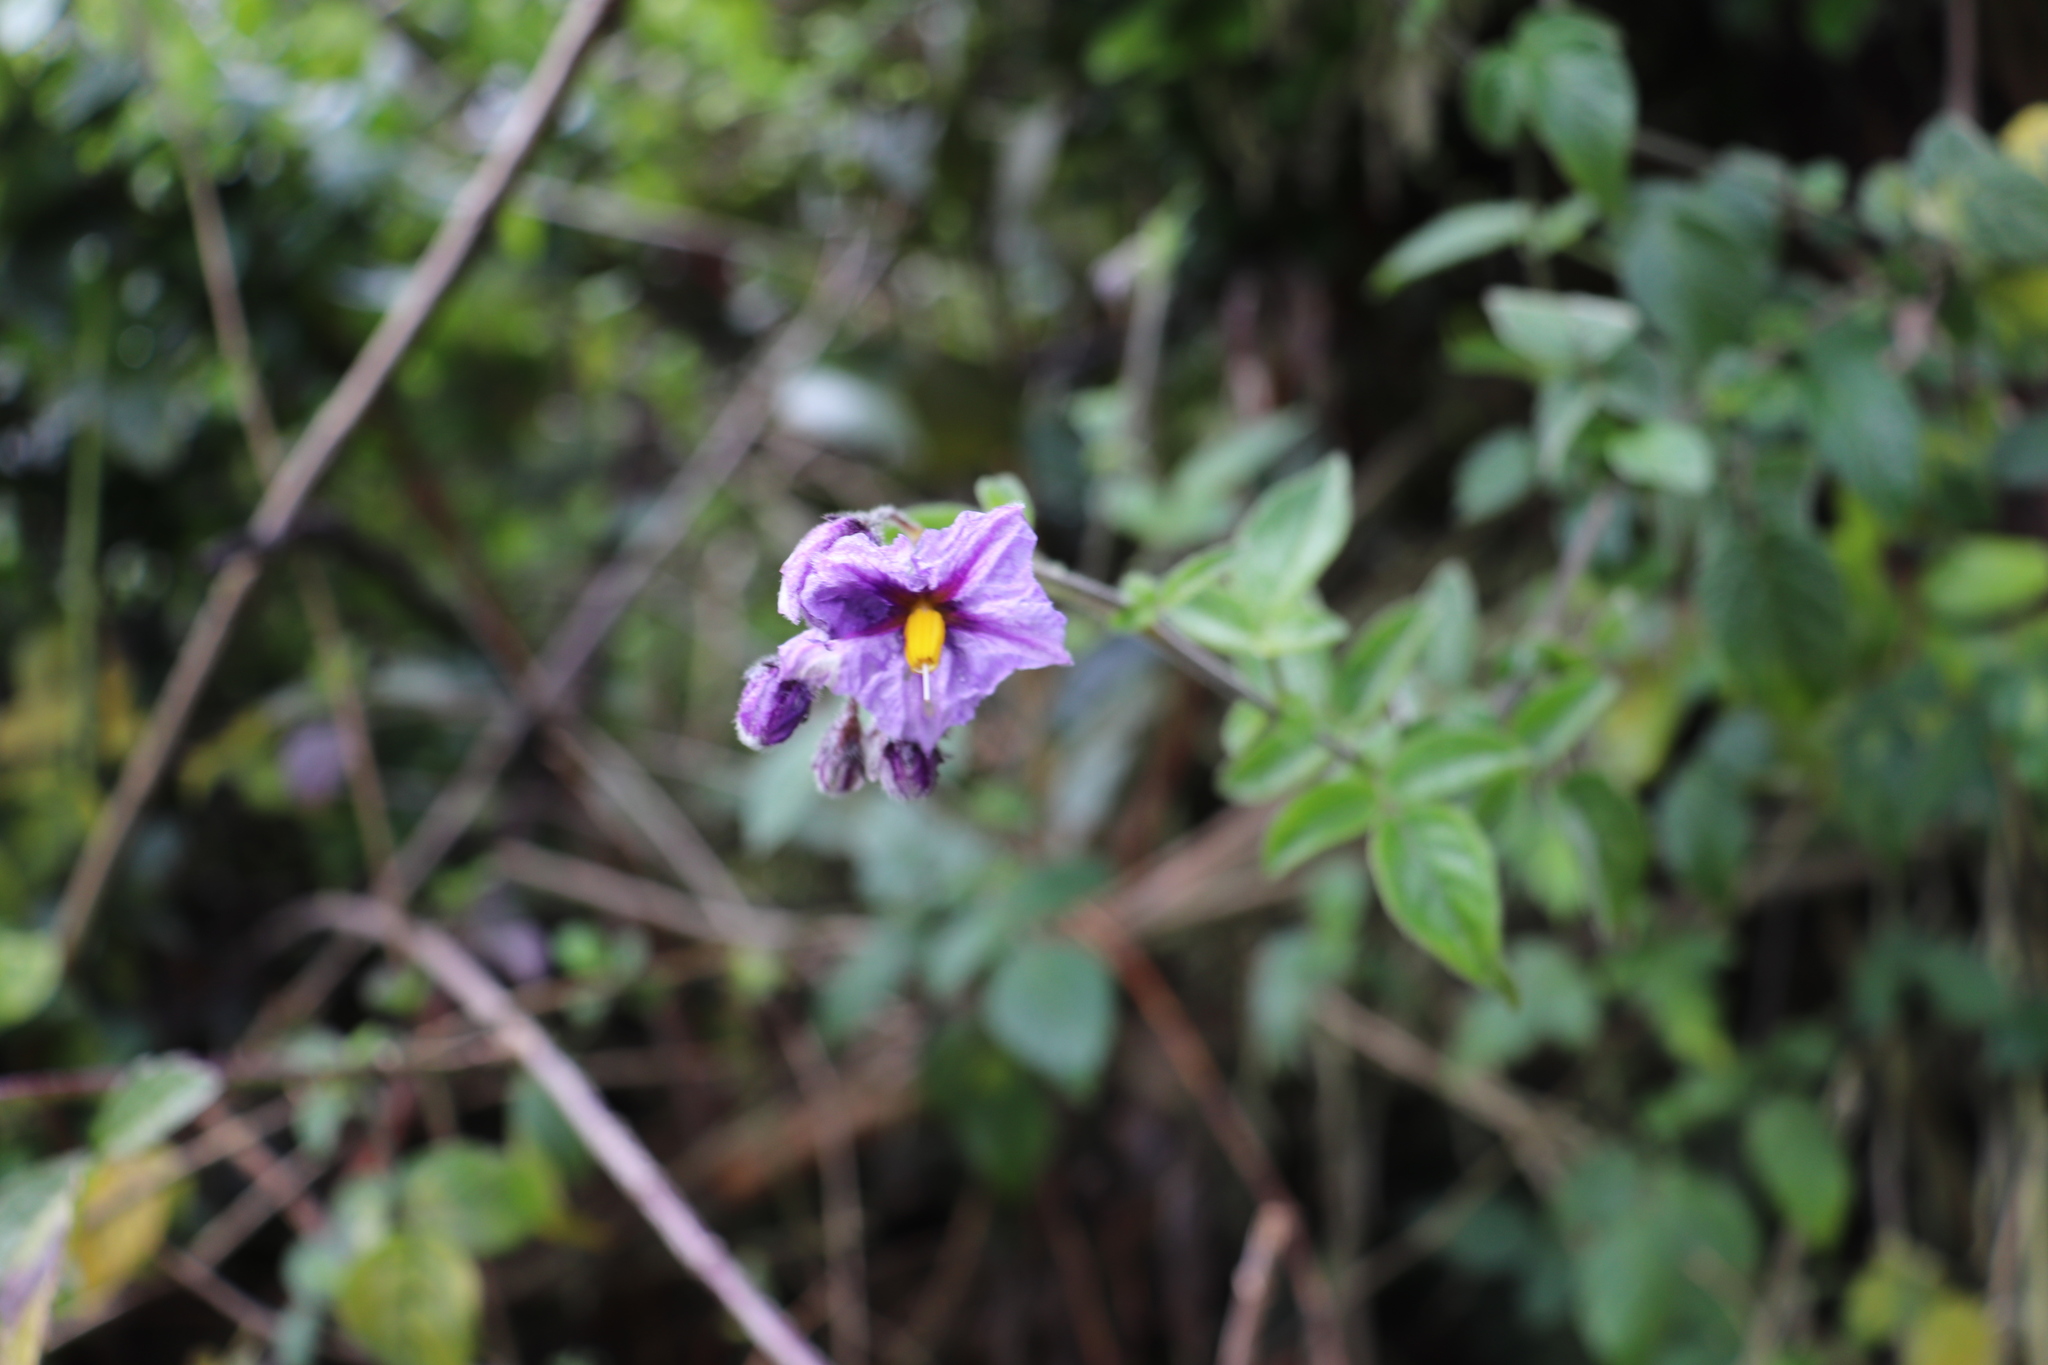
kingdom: Plantae
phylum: Tracheophyta
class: Magnoliopsida
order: Solanales
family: Solanaceae
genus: Lycianthes
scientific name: Lycianthes lycioides
